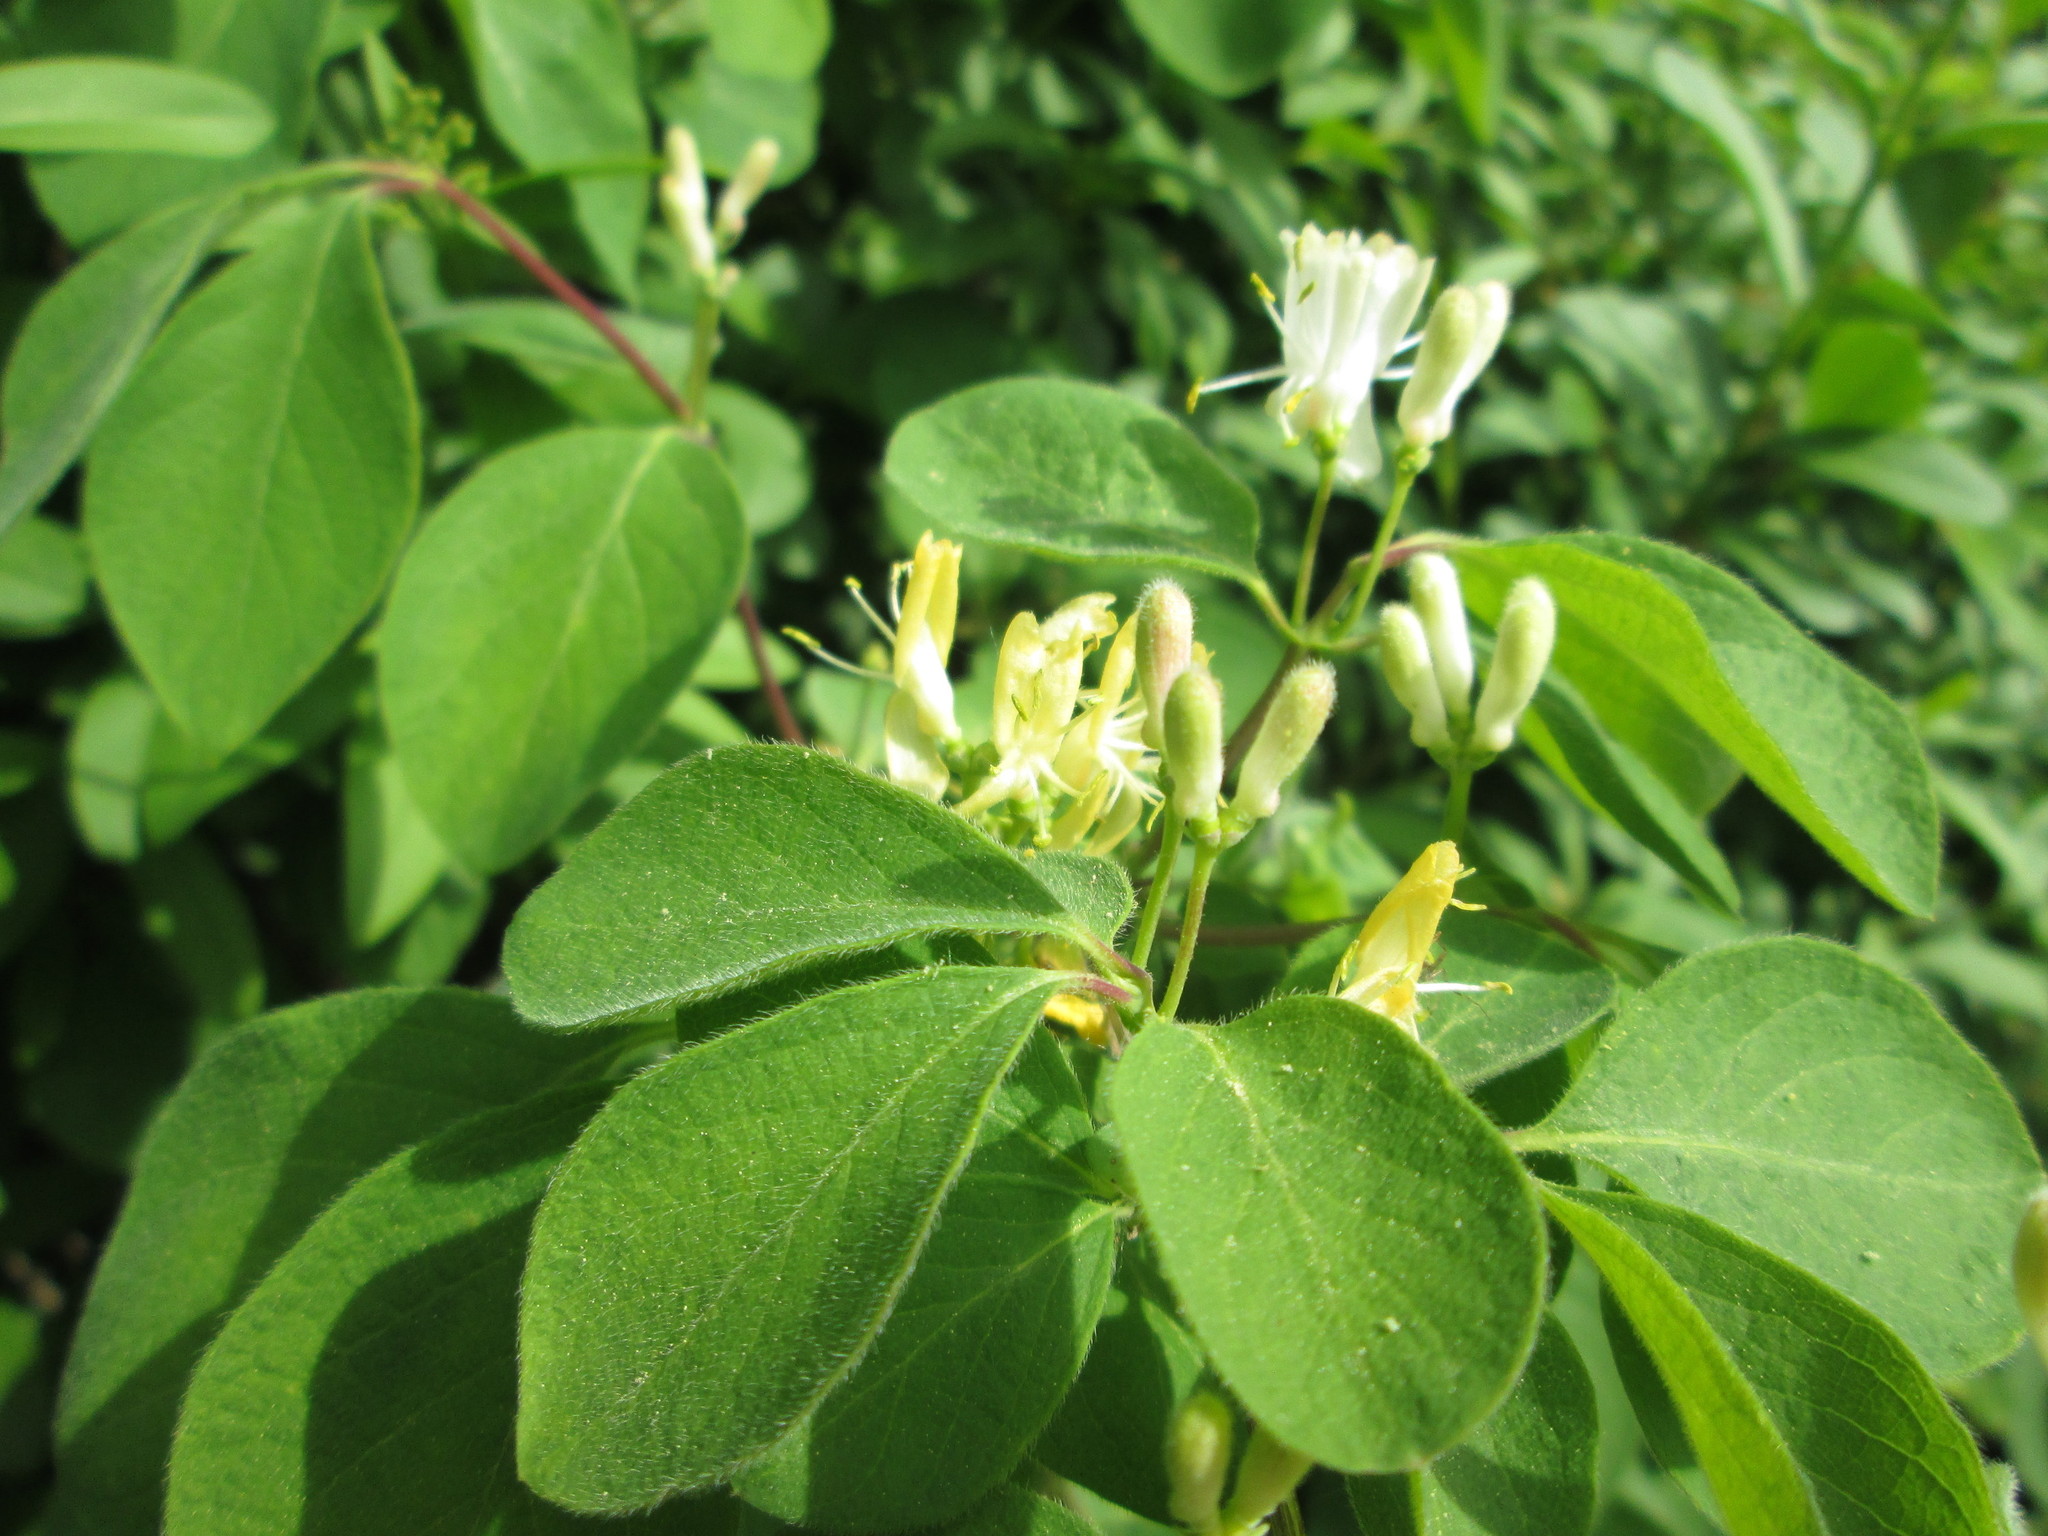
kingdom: Plantae
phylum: Tracheophyta
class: Magnoliopsida
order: Dipsacales
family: Caprifoliaceae
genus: Lonicera
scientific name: Lonicera xylosteum
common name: Fly honeysuckle
